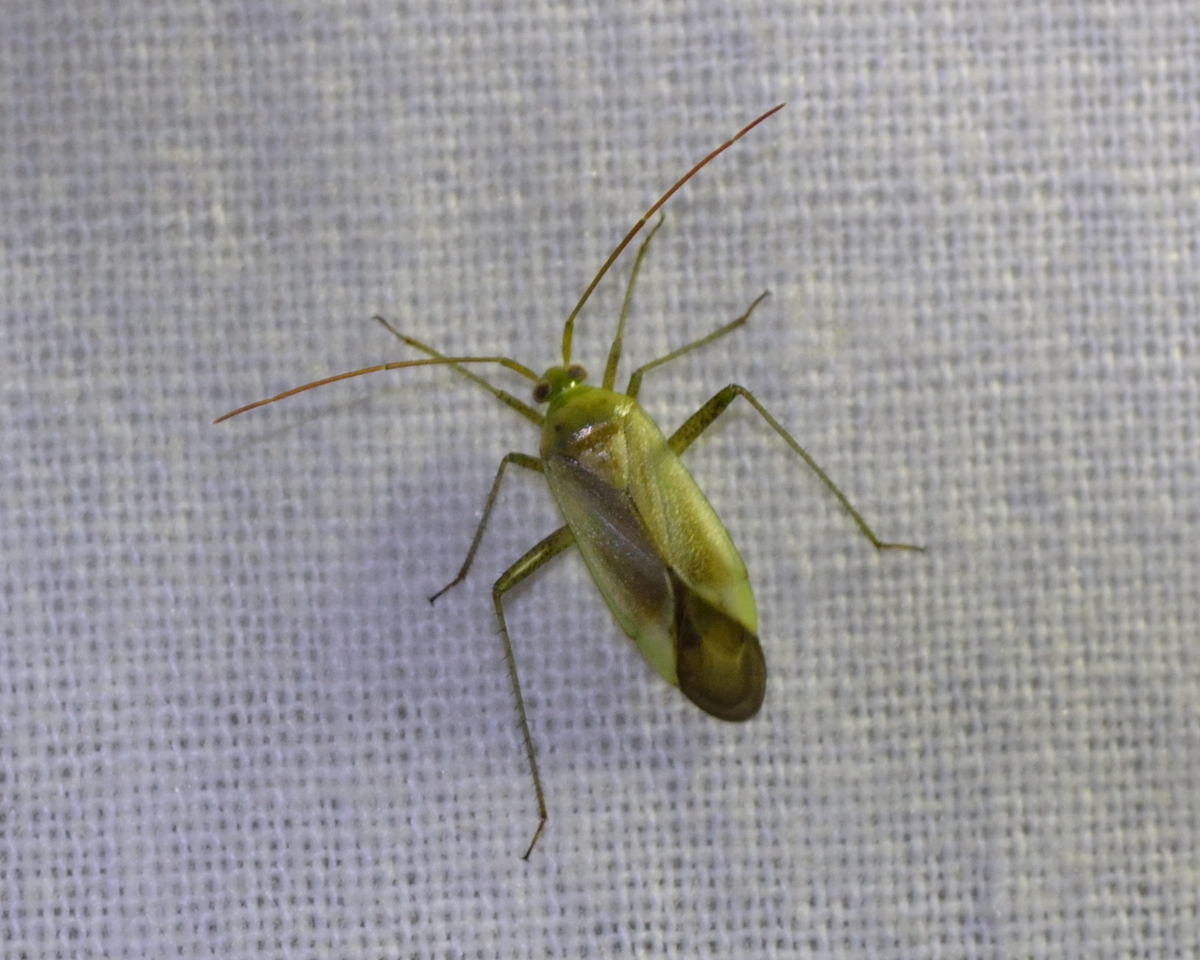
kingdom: Animalia
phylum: Arthropoda
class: Insecta
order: Hemiptera
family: Miridae
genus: Adelphocoris
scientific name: Adelphocoris lineolatus
